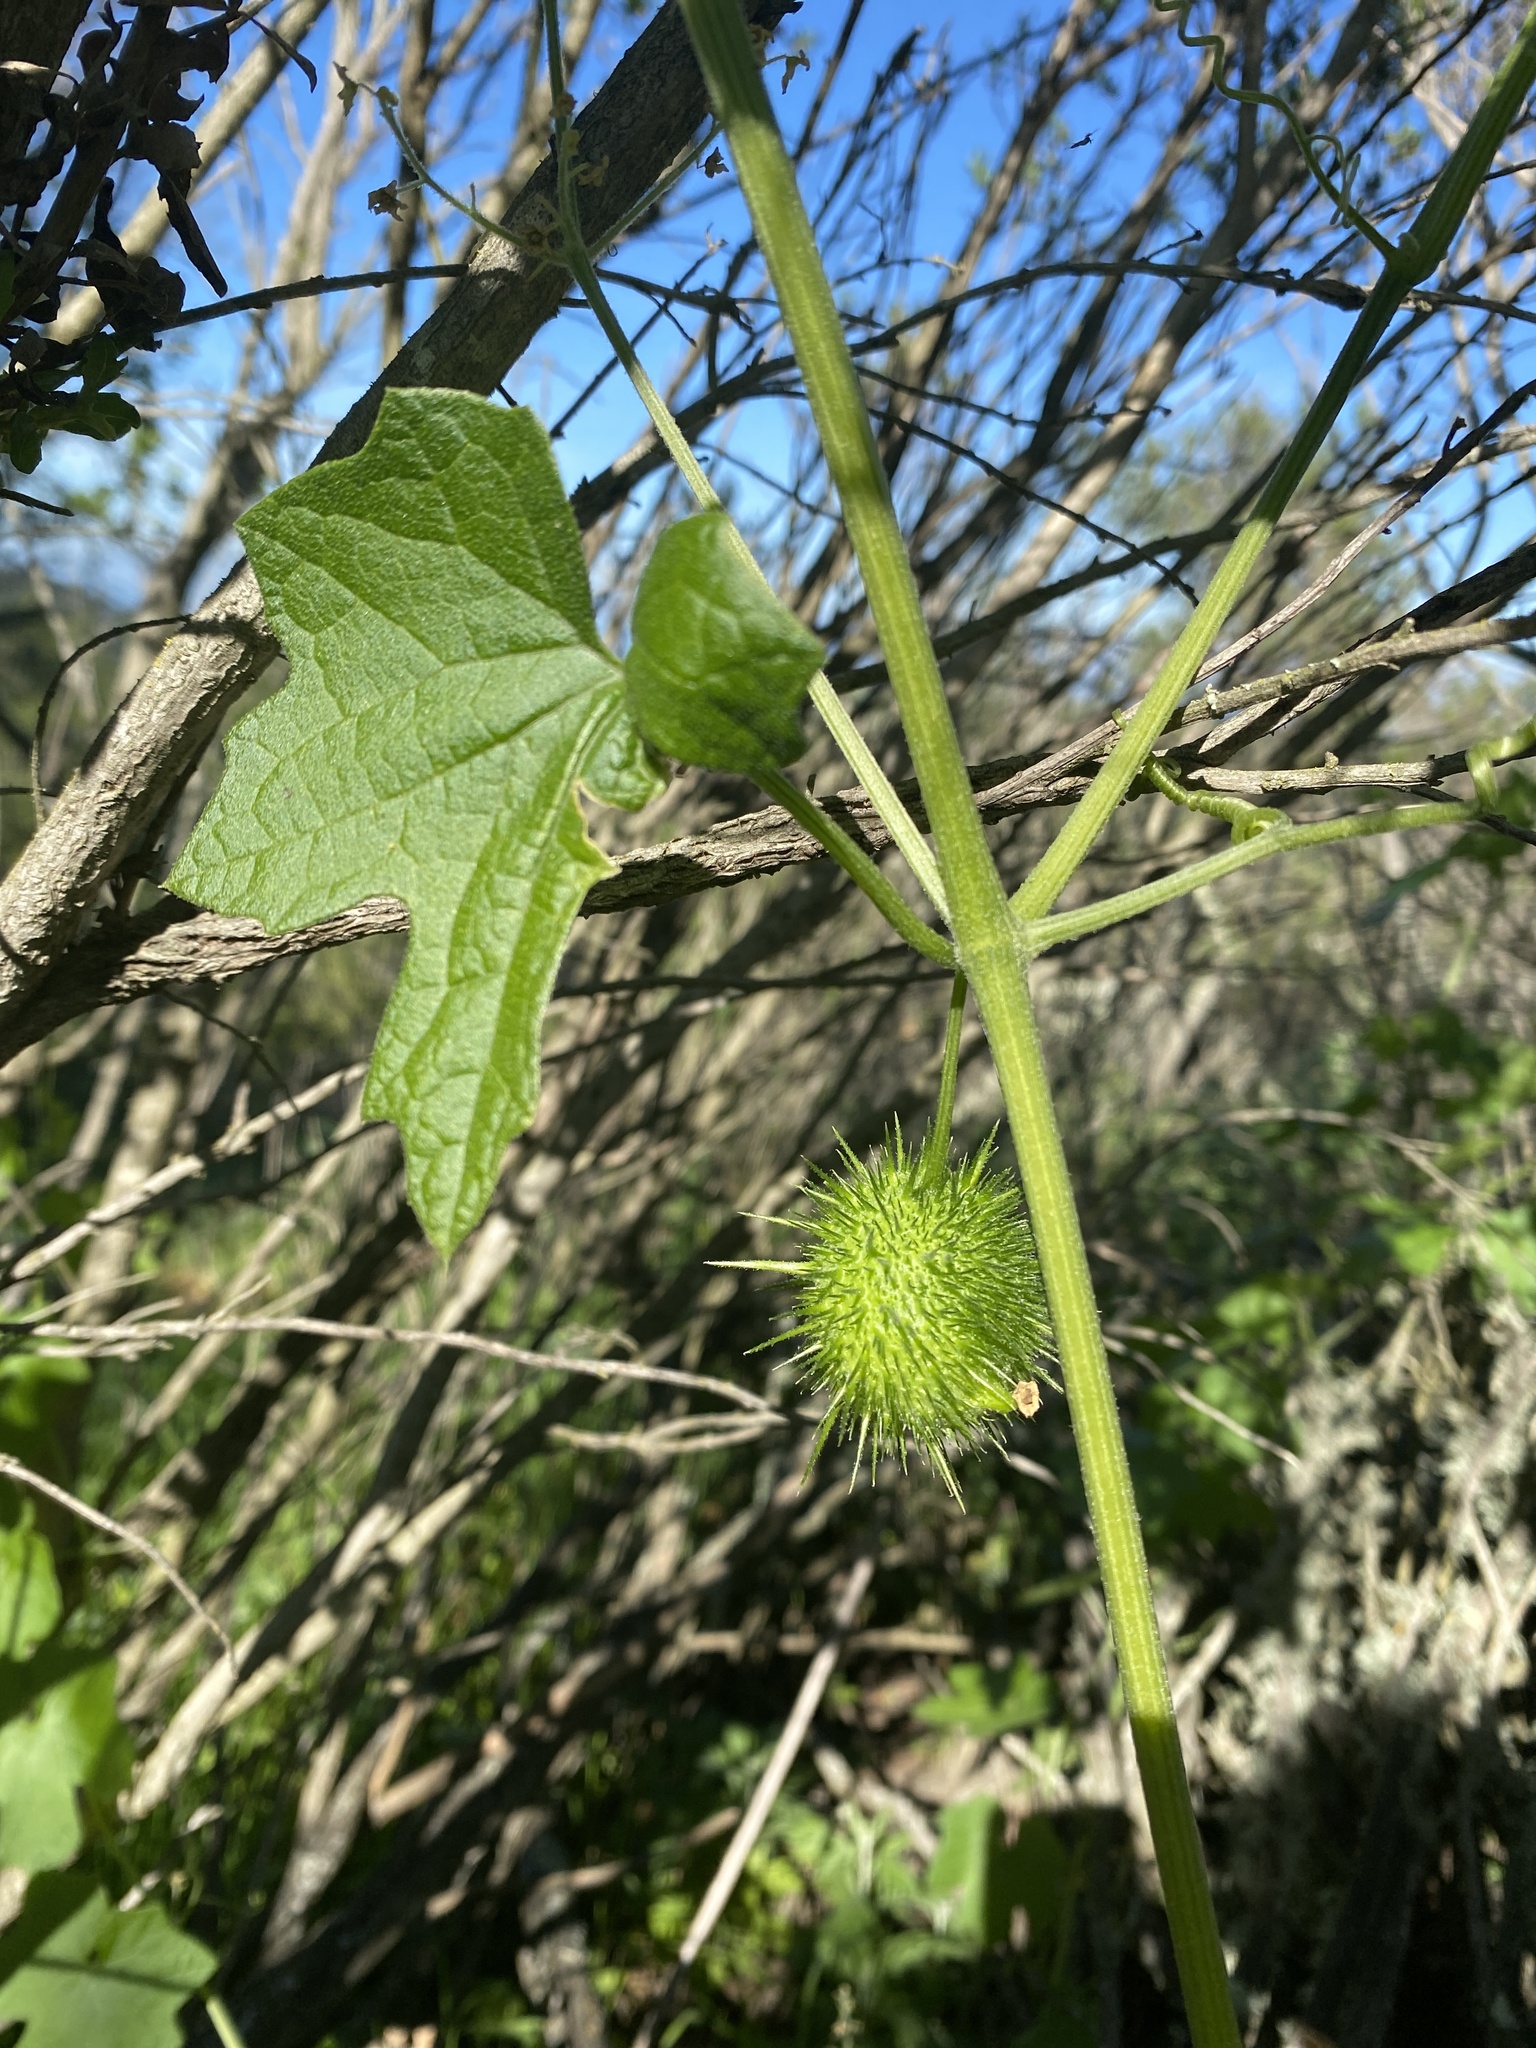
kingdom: Plantae
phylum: Tracheophyta
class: Magnoliopsida
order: Cucurbitales
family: Cucurbitaceae
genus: Marah
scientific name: Marah fabacea
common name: California manroot
